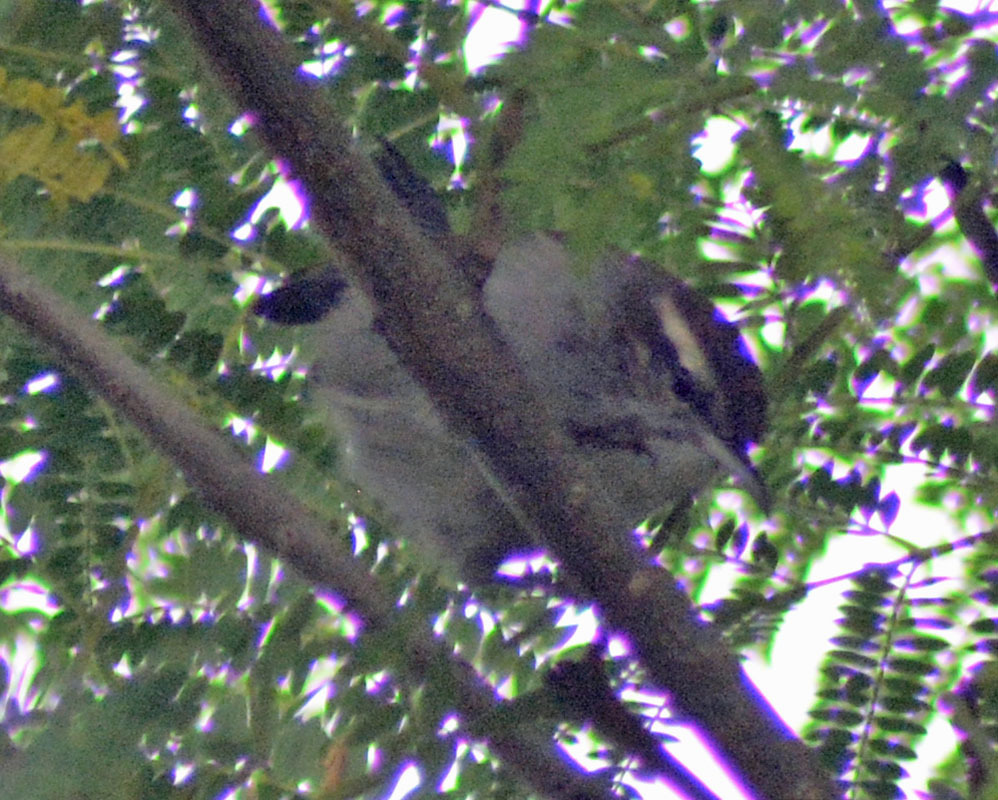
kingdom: Animalia
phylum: Chordata
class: Aves
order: Passeriformes
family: Troglodytidae
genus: Thryomanes
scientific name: Thryomanes bewickii
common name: Bewick's wren
